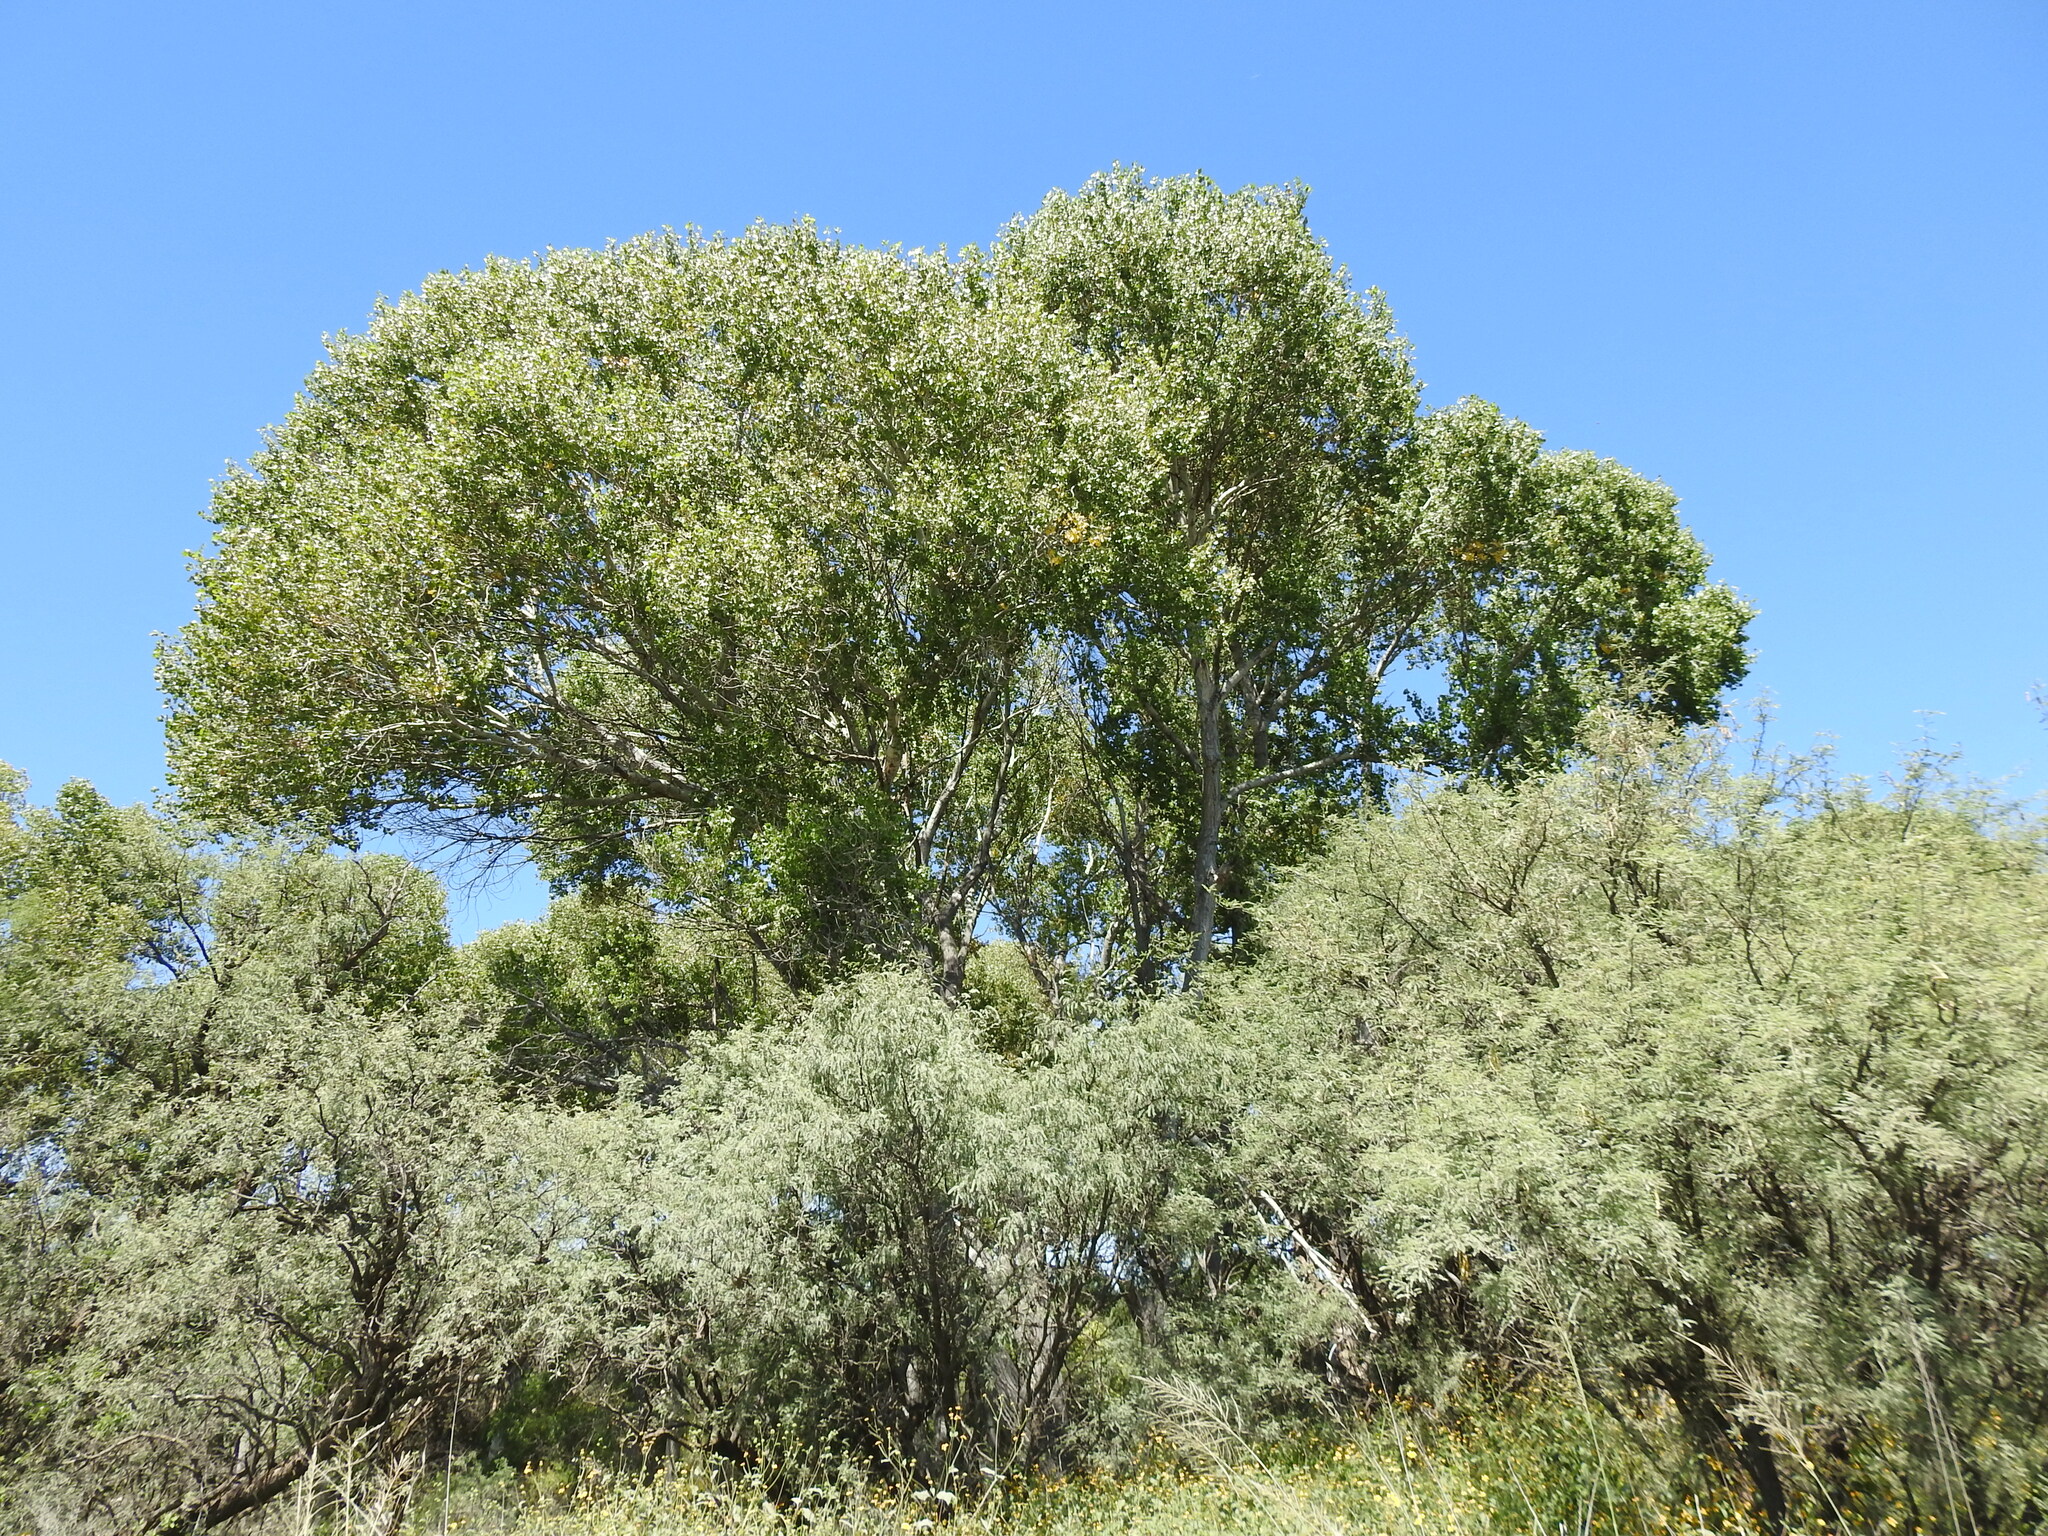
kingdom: Plantae
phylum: Tracheophyta
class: Magnoliopsida
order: Malpighiales
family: Salicaceae
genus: Populus
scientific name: Populus fremontii
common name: Fremont's cottonwood
